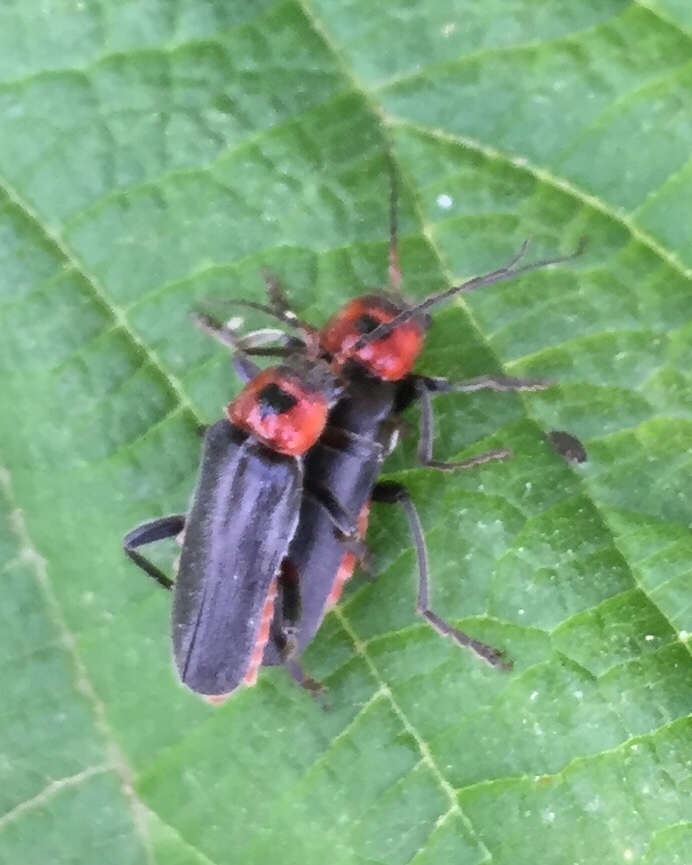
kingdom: Animalia
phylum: Arthropoda
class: Insecta
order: Coleoptera
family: Cantharidae
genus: Cantharis
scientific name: Cantharis rustica
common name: Soldier beetle
